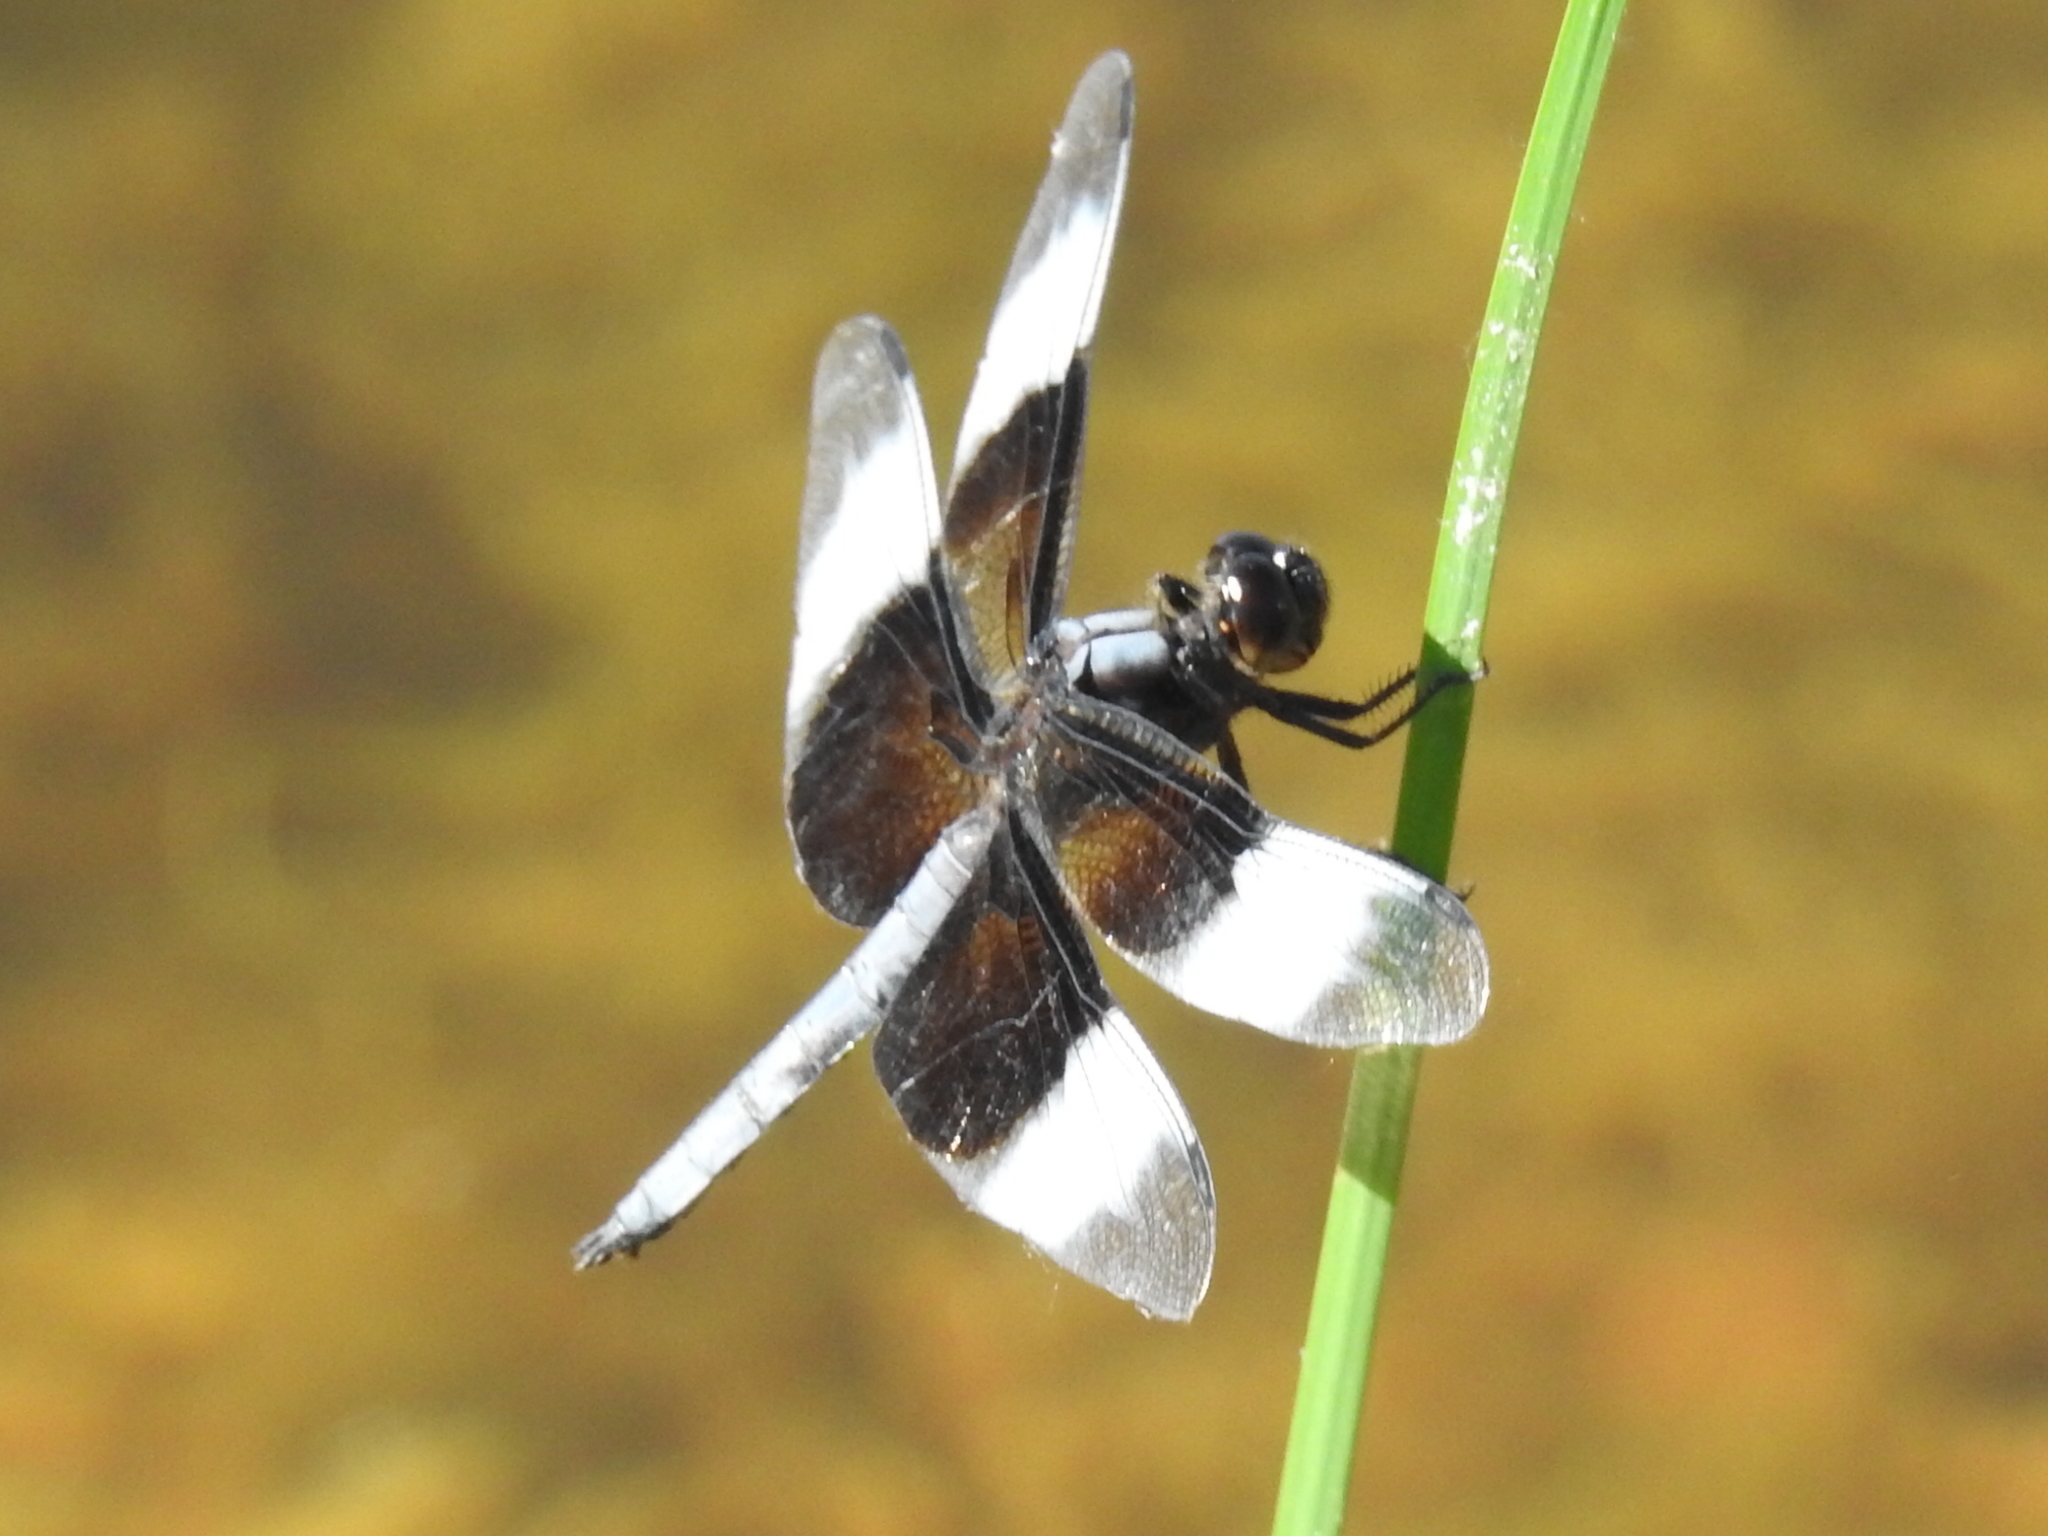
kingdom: Animalia
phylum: Arthropoda
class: Insecta
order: Odonata
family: Libellulidae
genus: Libellula
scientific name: Libellula luctuosa
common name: Widow skimmer
